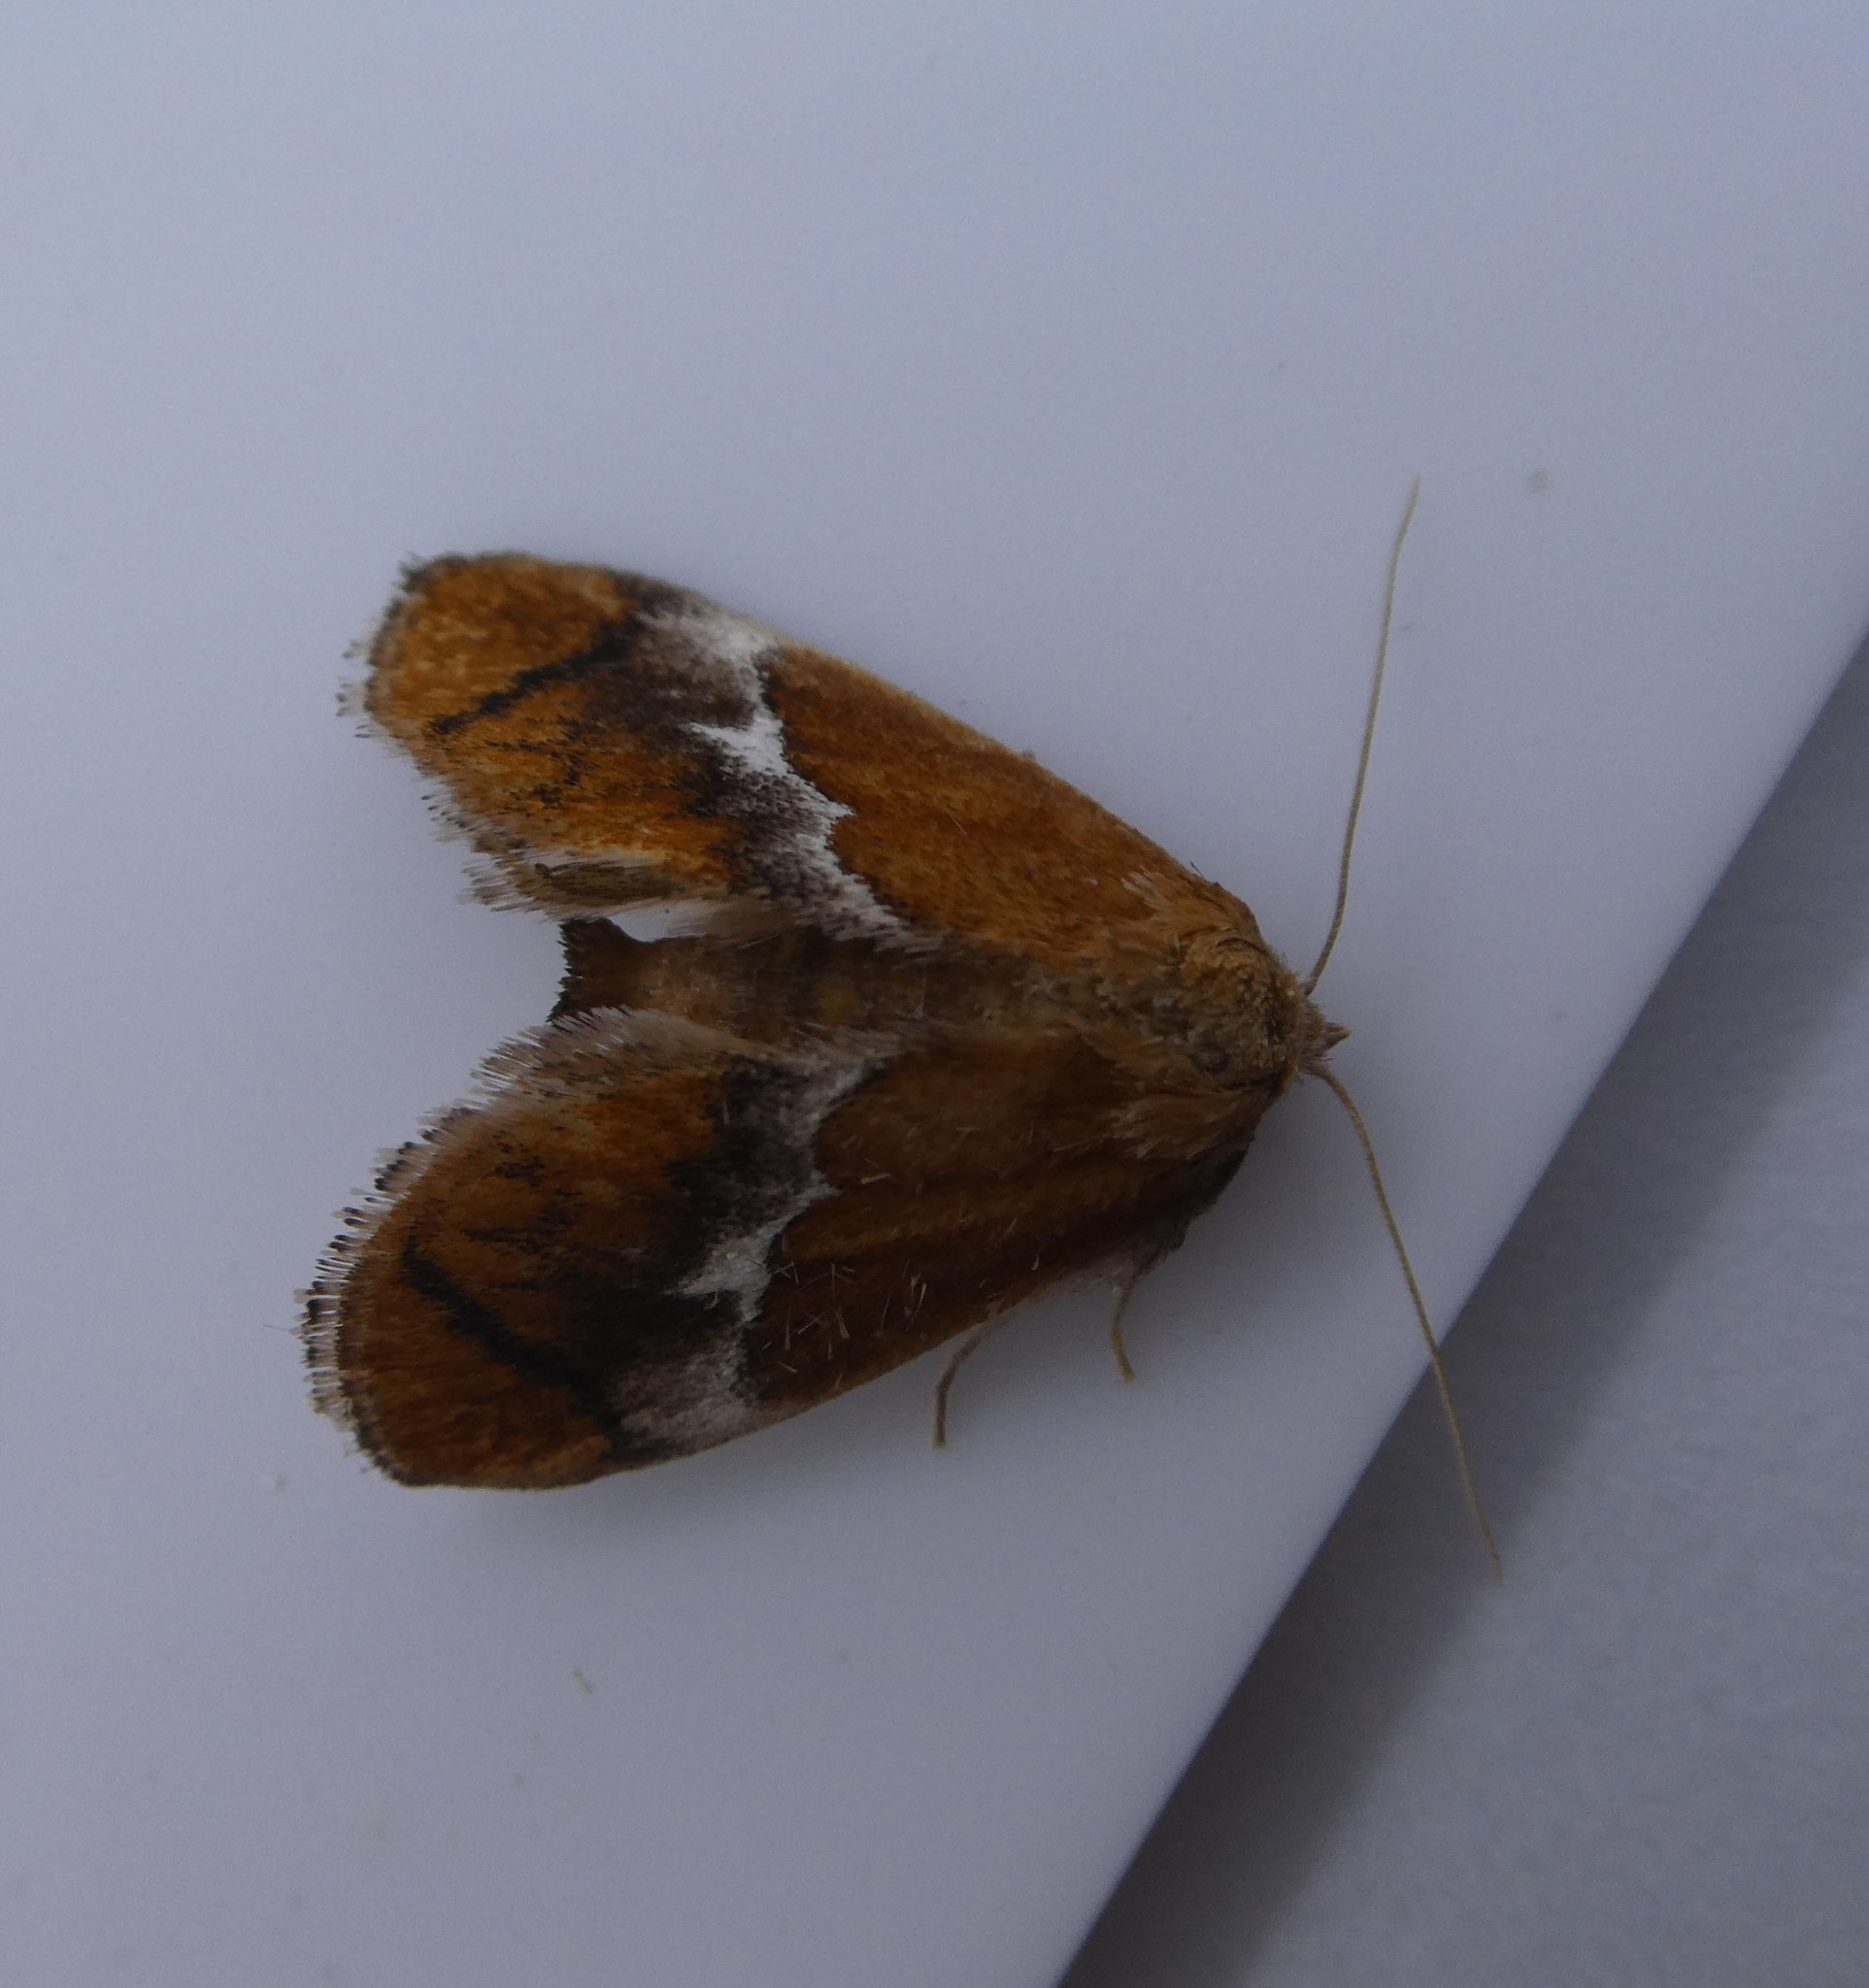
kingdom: Animalia
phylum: Arthropoda
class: Insecta
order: Lepidoptera
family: Limacodidae
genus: Lithacodes
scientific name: Lithacodes fasciola
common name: Yellow-shouldered slug moth
